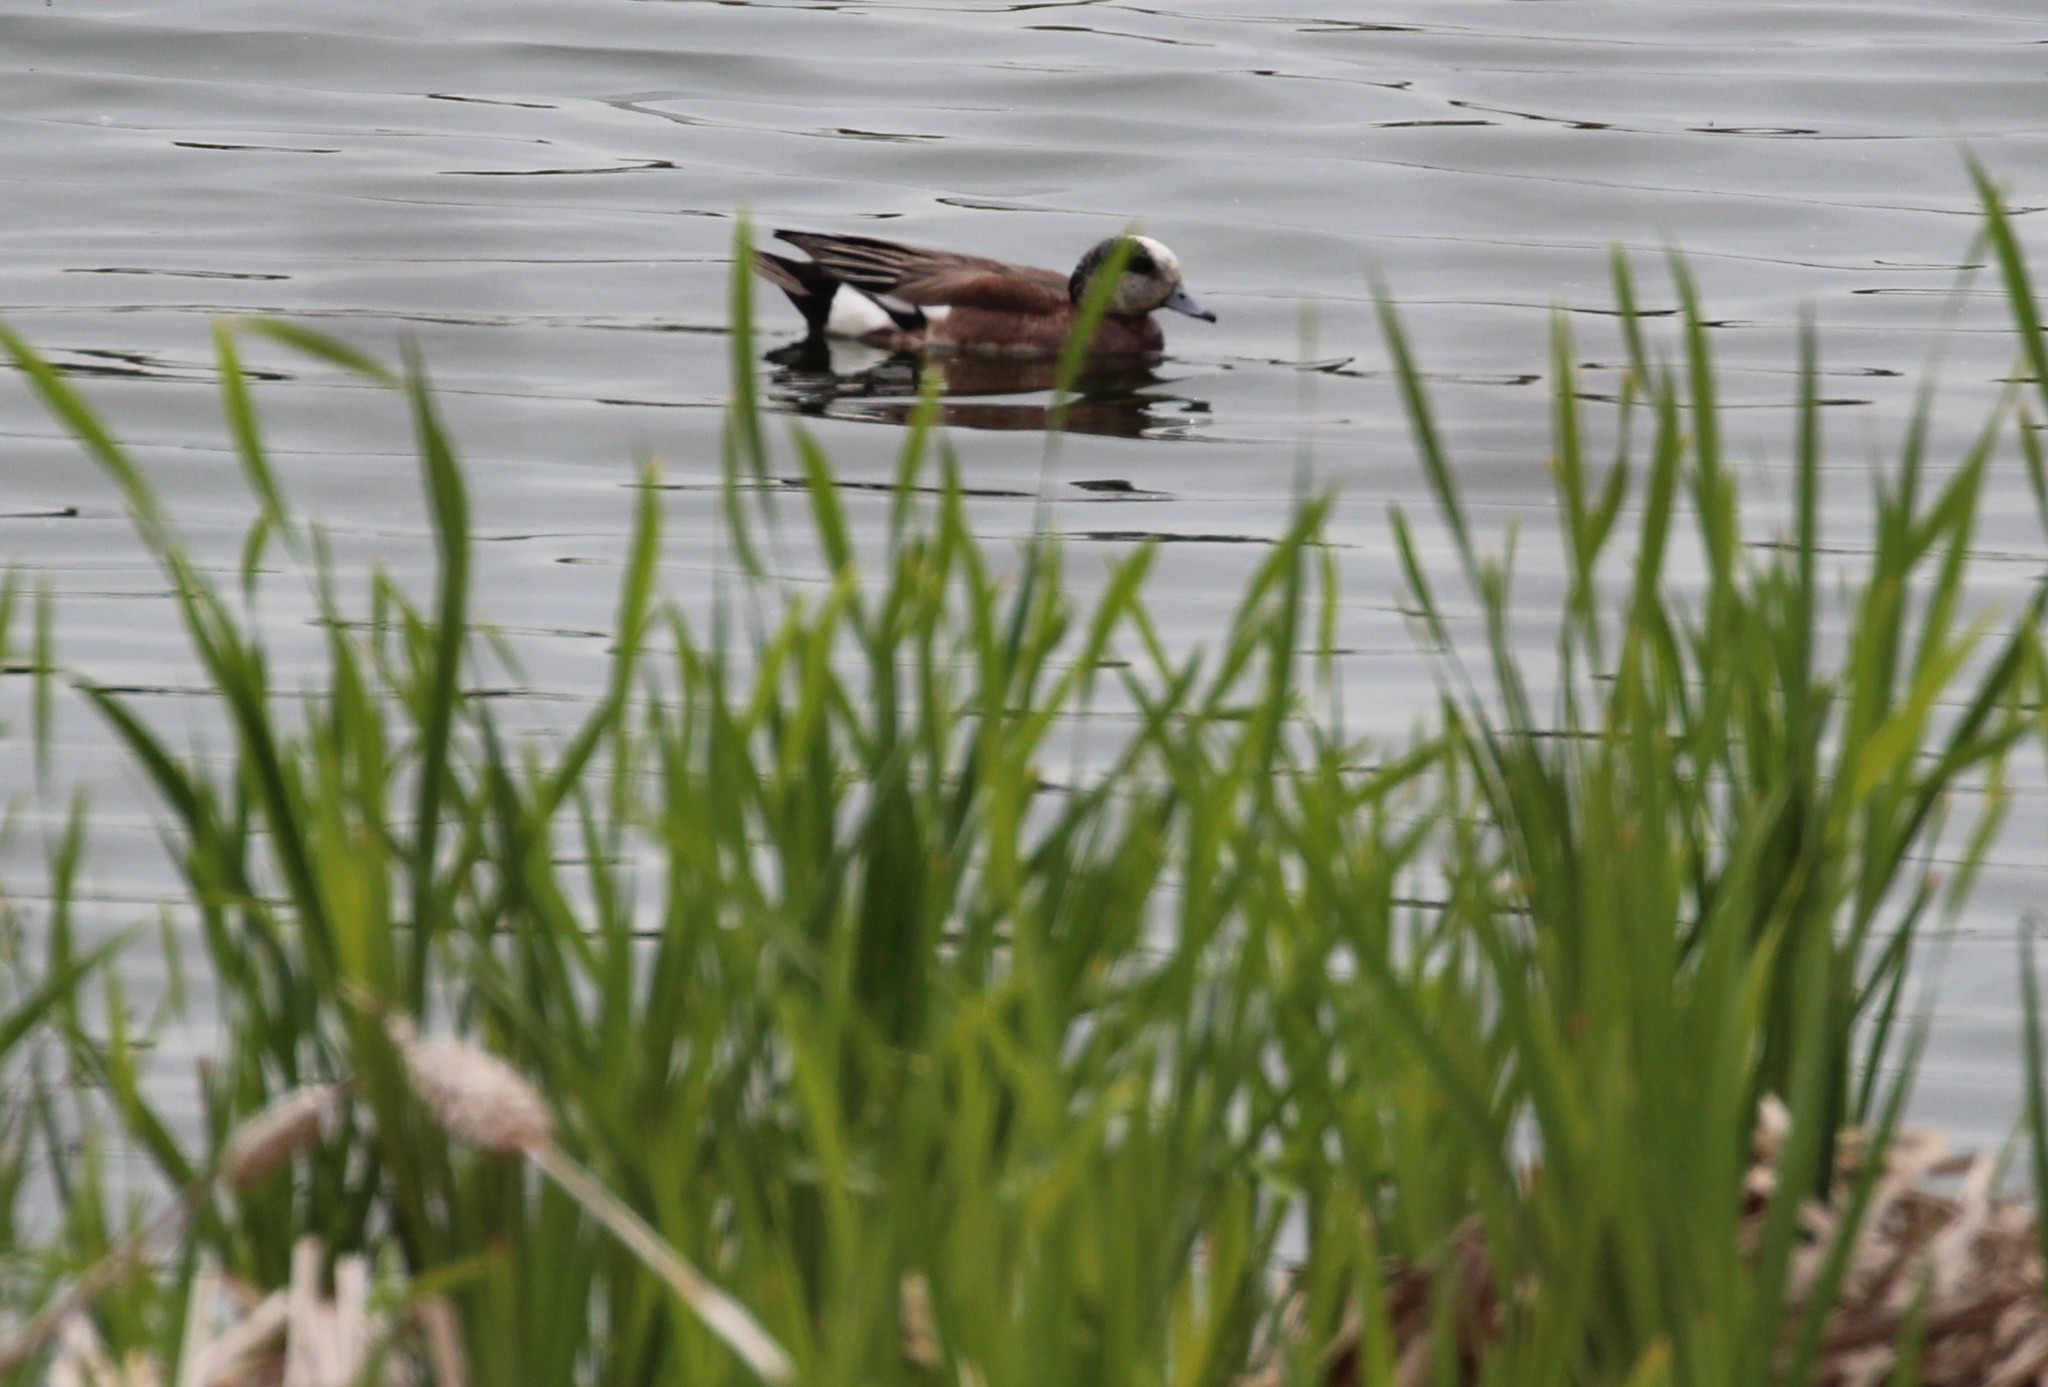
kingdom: Animalia
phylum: Chordata
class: Aves
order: Anseriformes
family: Anatidae
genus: Mareca
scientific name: Mareca americana
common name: American wigeon
